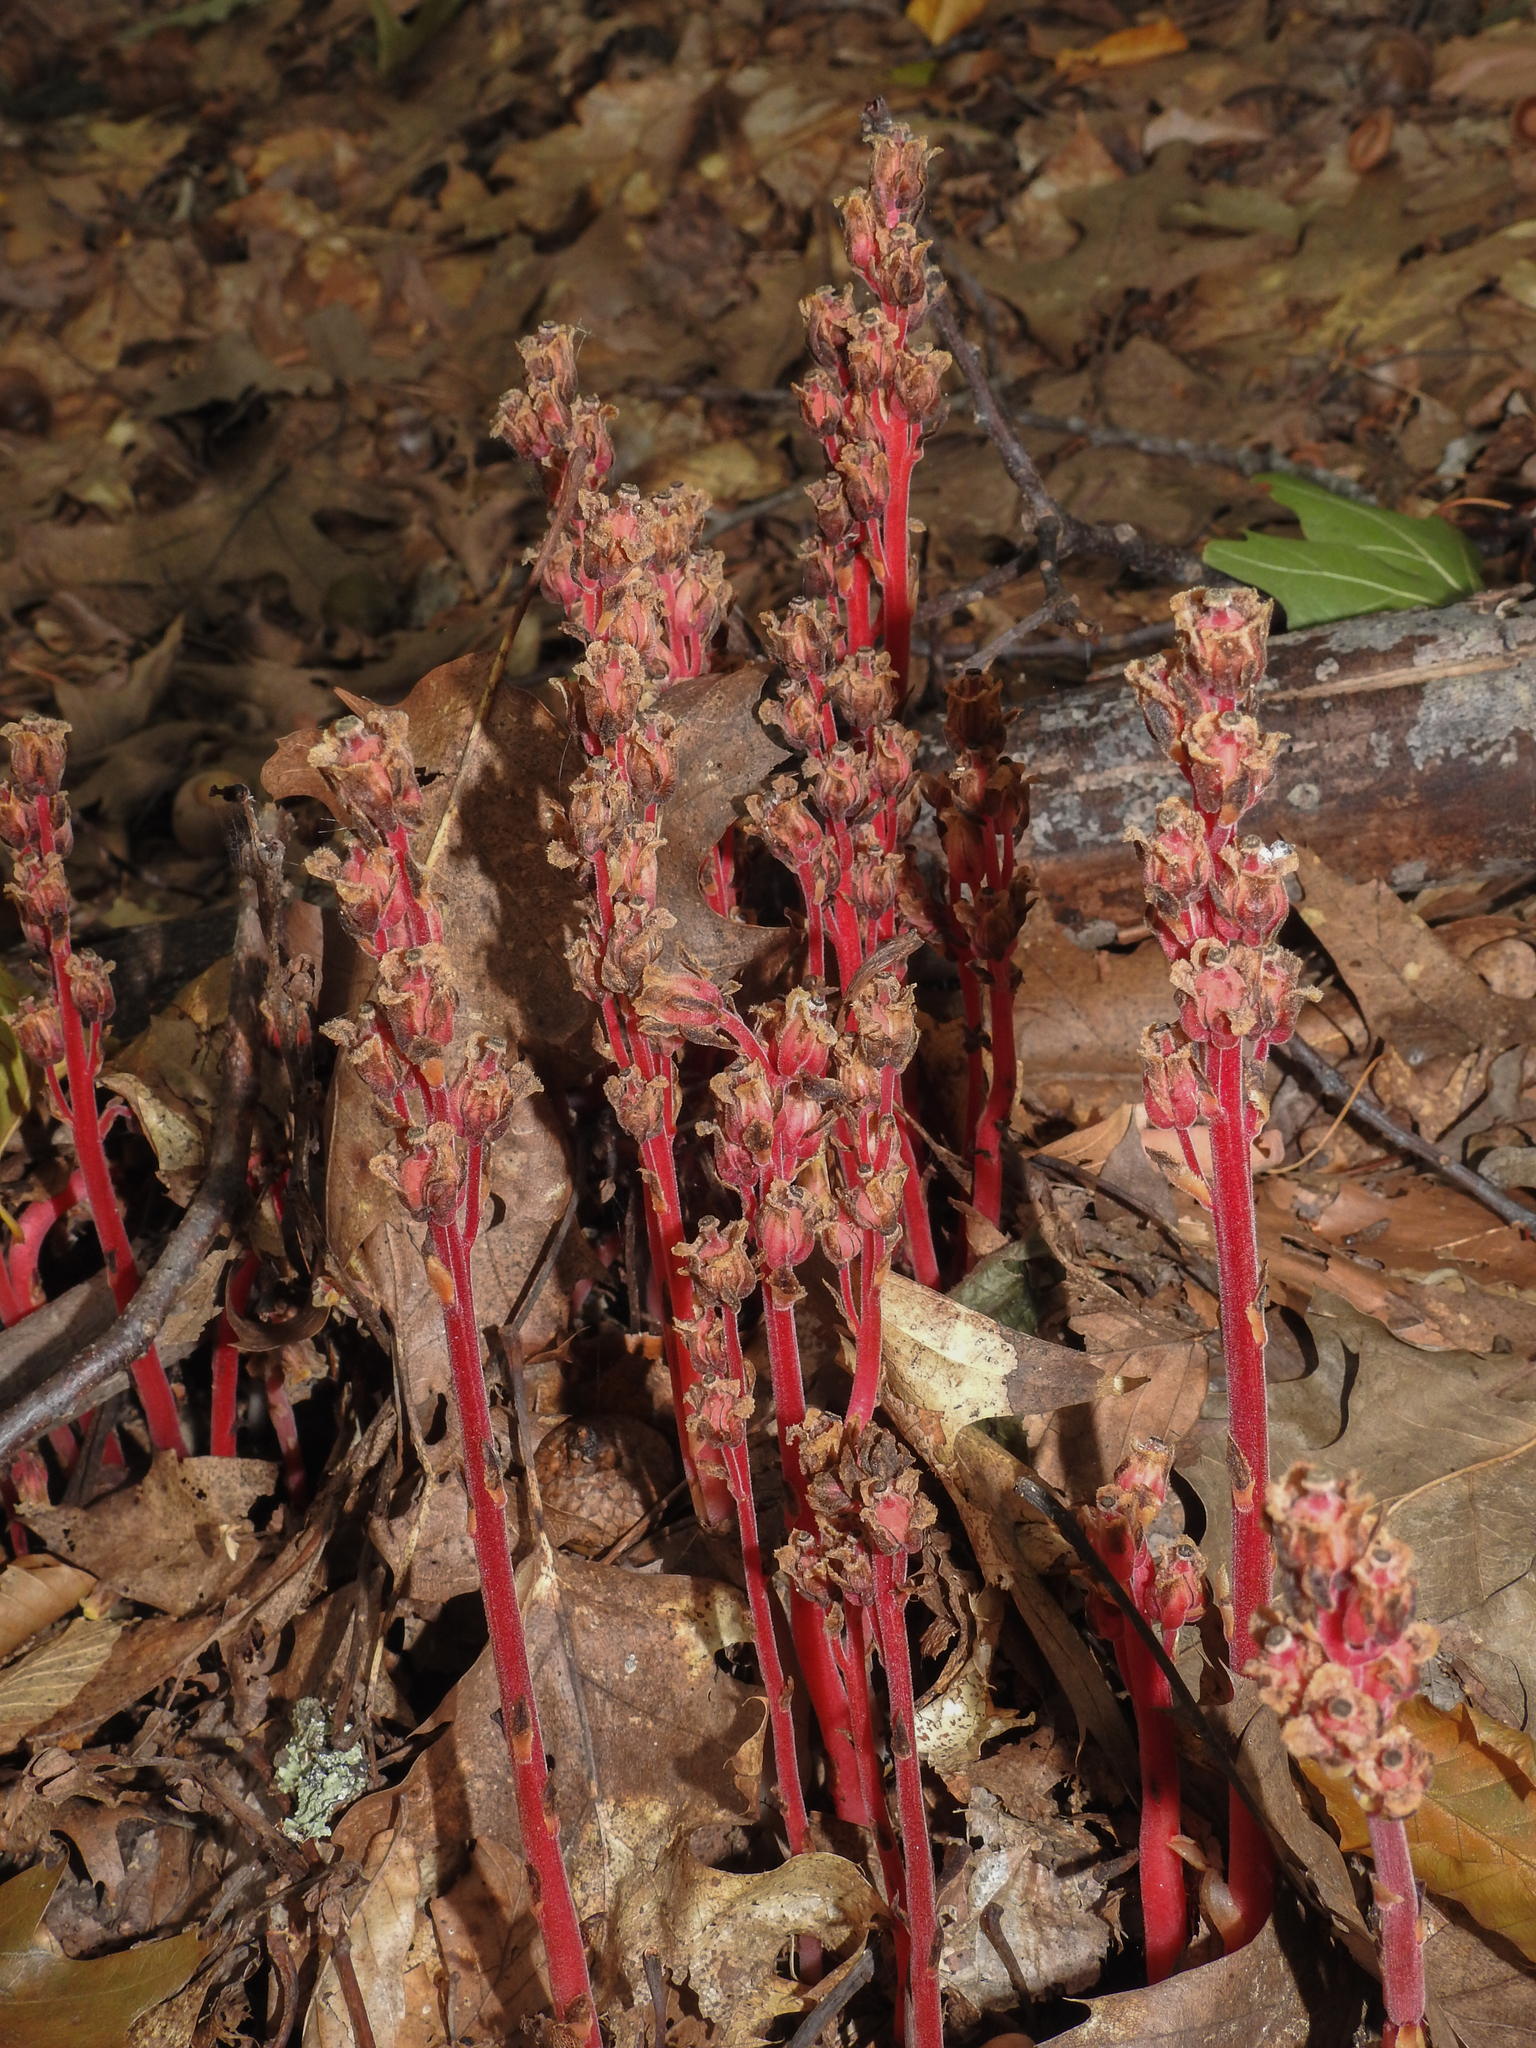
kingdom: Plantae
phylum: Tracheophyta
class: Magnoliopsida
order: Ericales
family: Ericaceae
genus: Hypopitys
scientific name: Hypopitys monotropa
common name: Yellow bird's-nest
